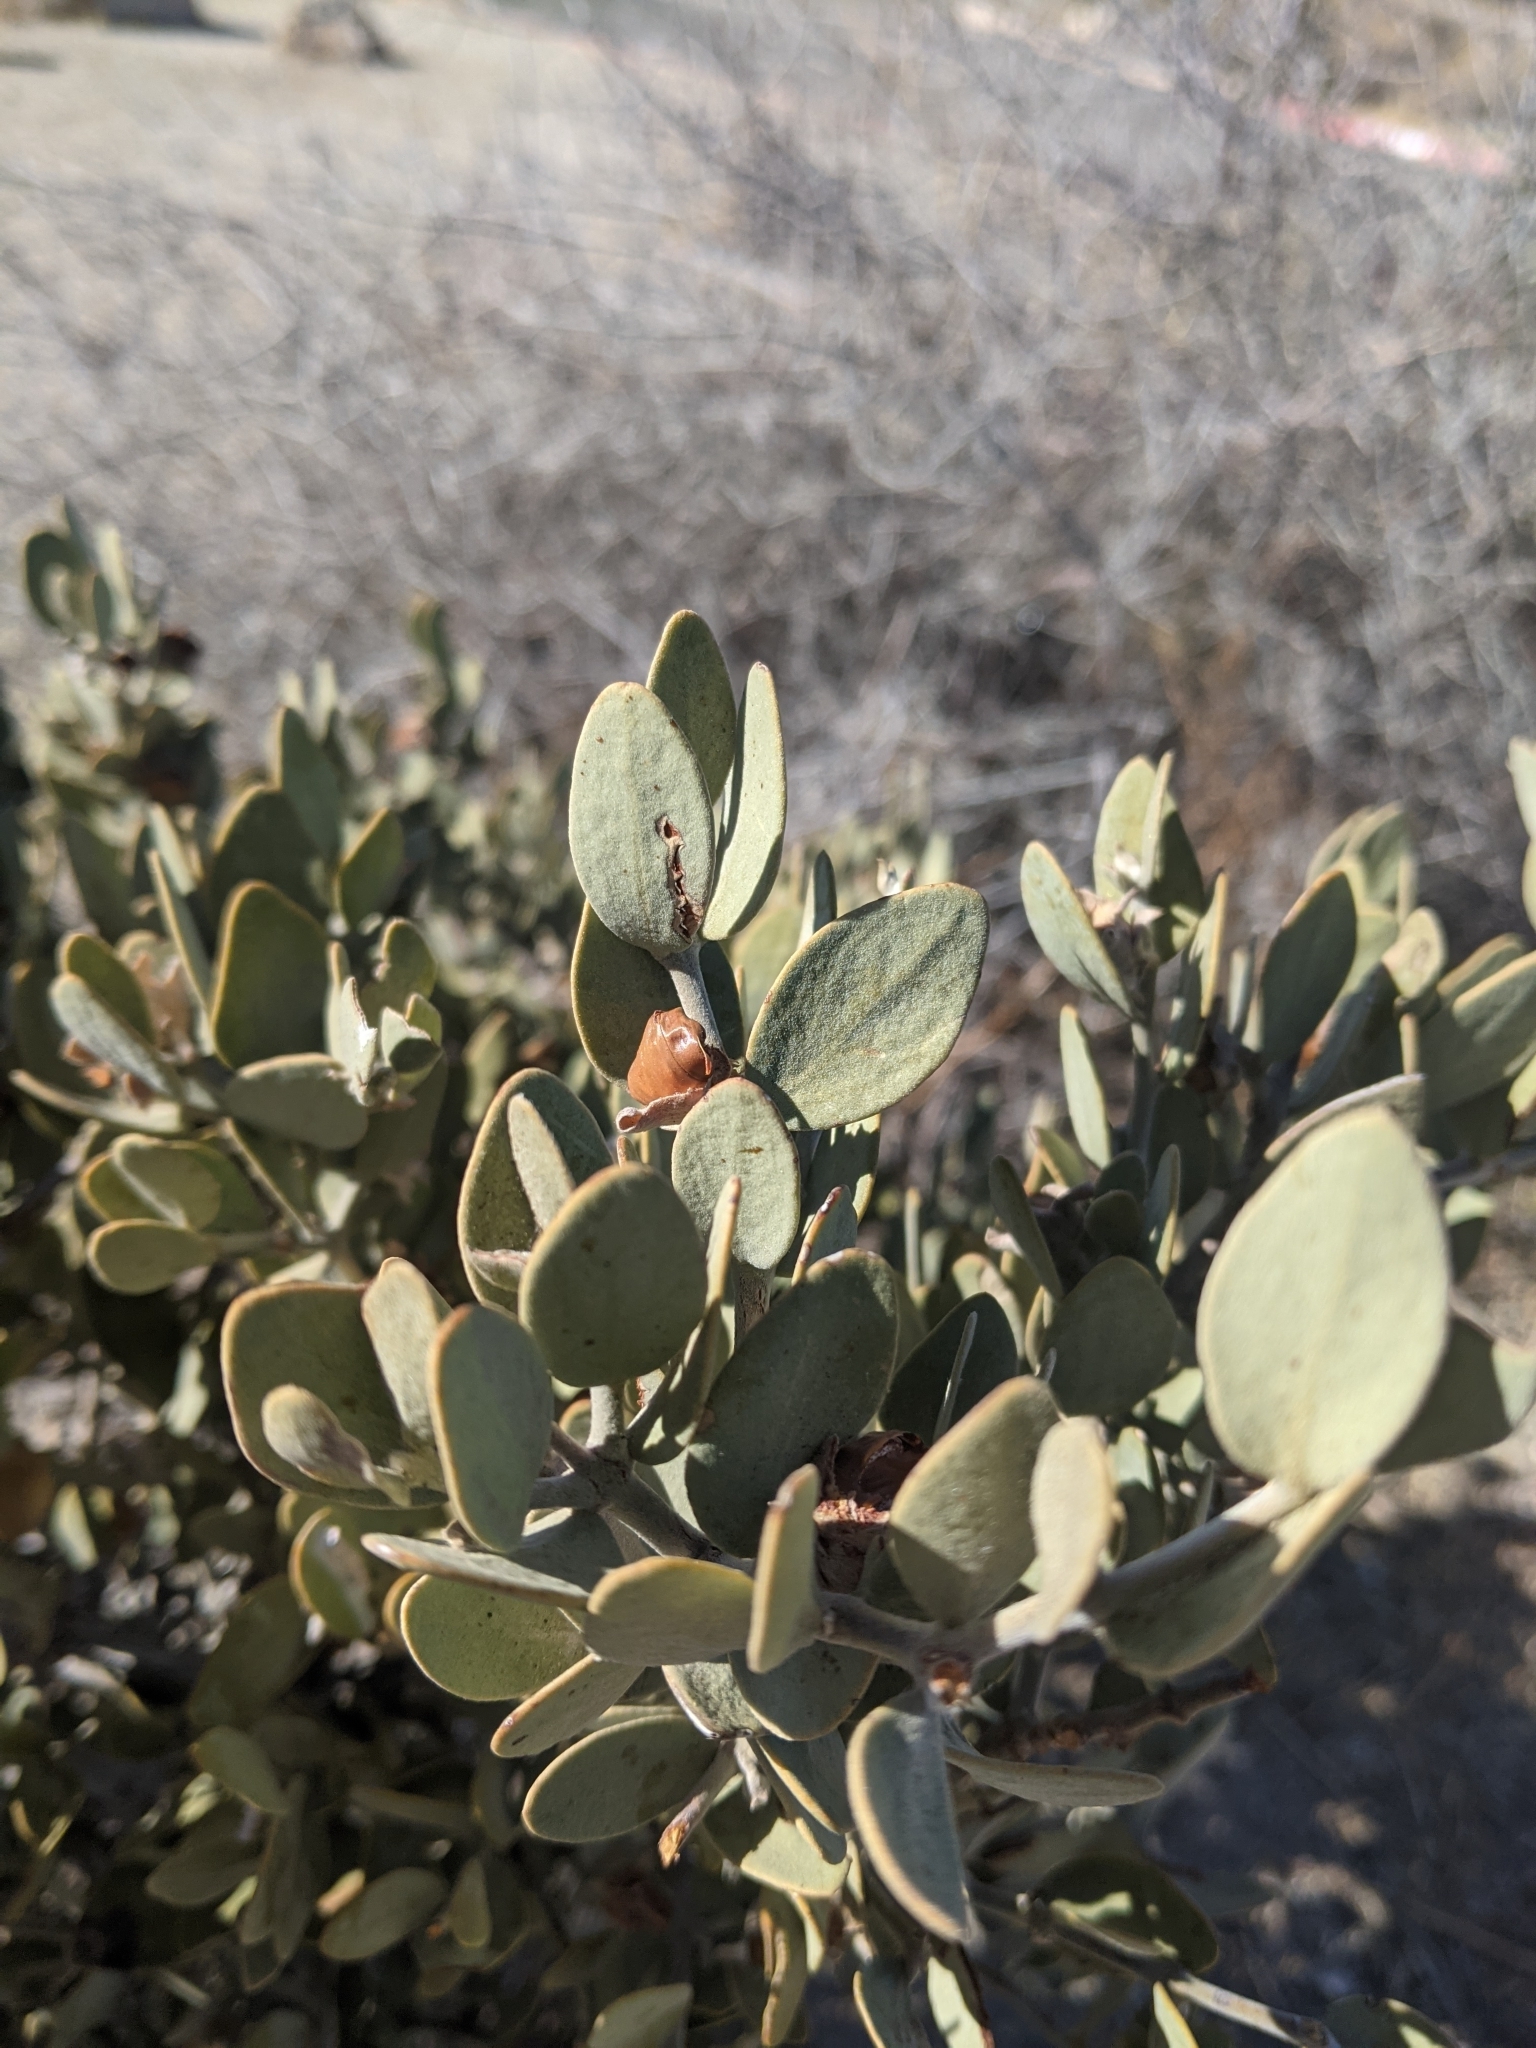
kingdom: Plantae
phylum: Tracheophyta
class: Magnoliopsida
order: Caryophyllales
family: Simmondsiaceae
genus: Simmondsia
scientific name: Simmondsia chinensis
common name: Jojoba
